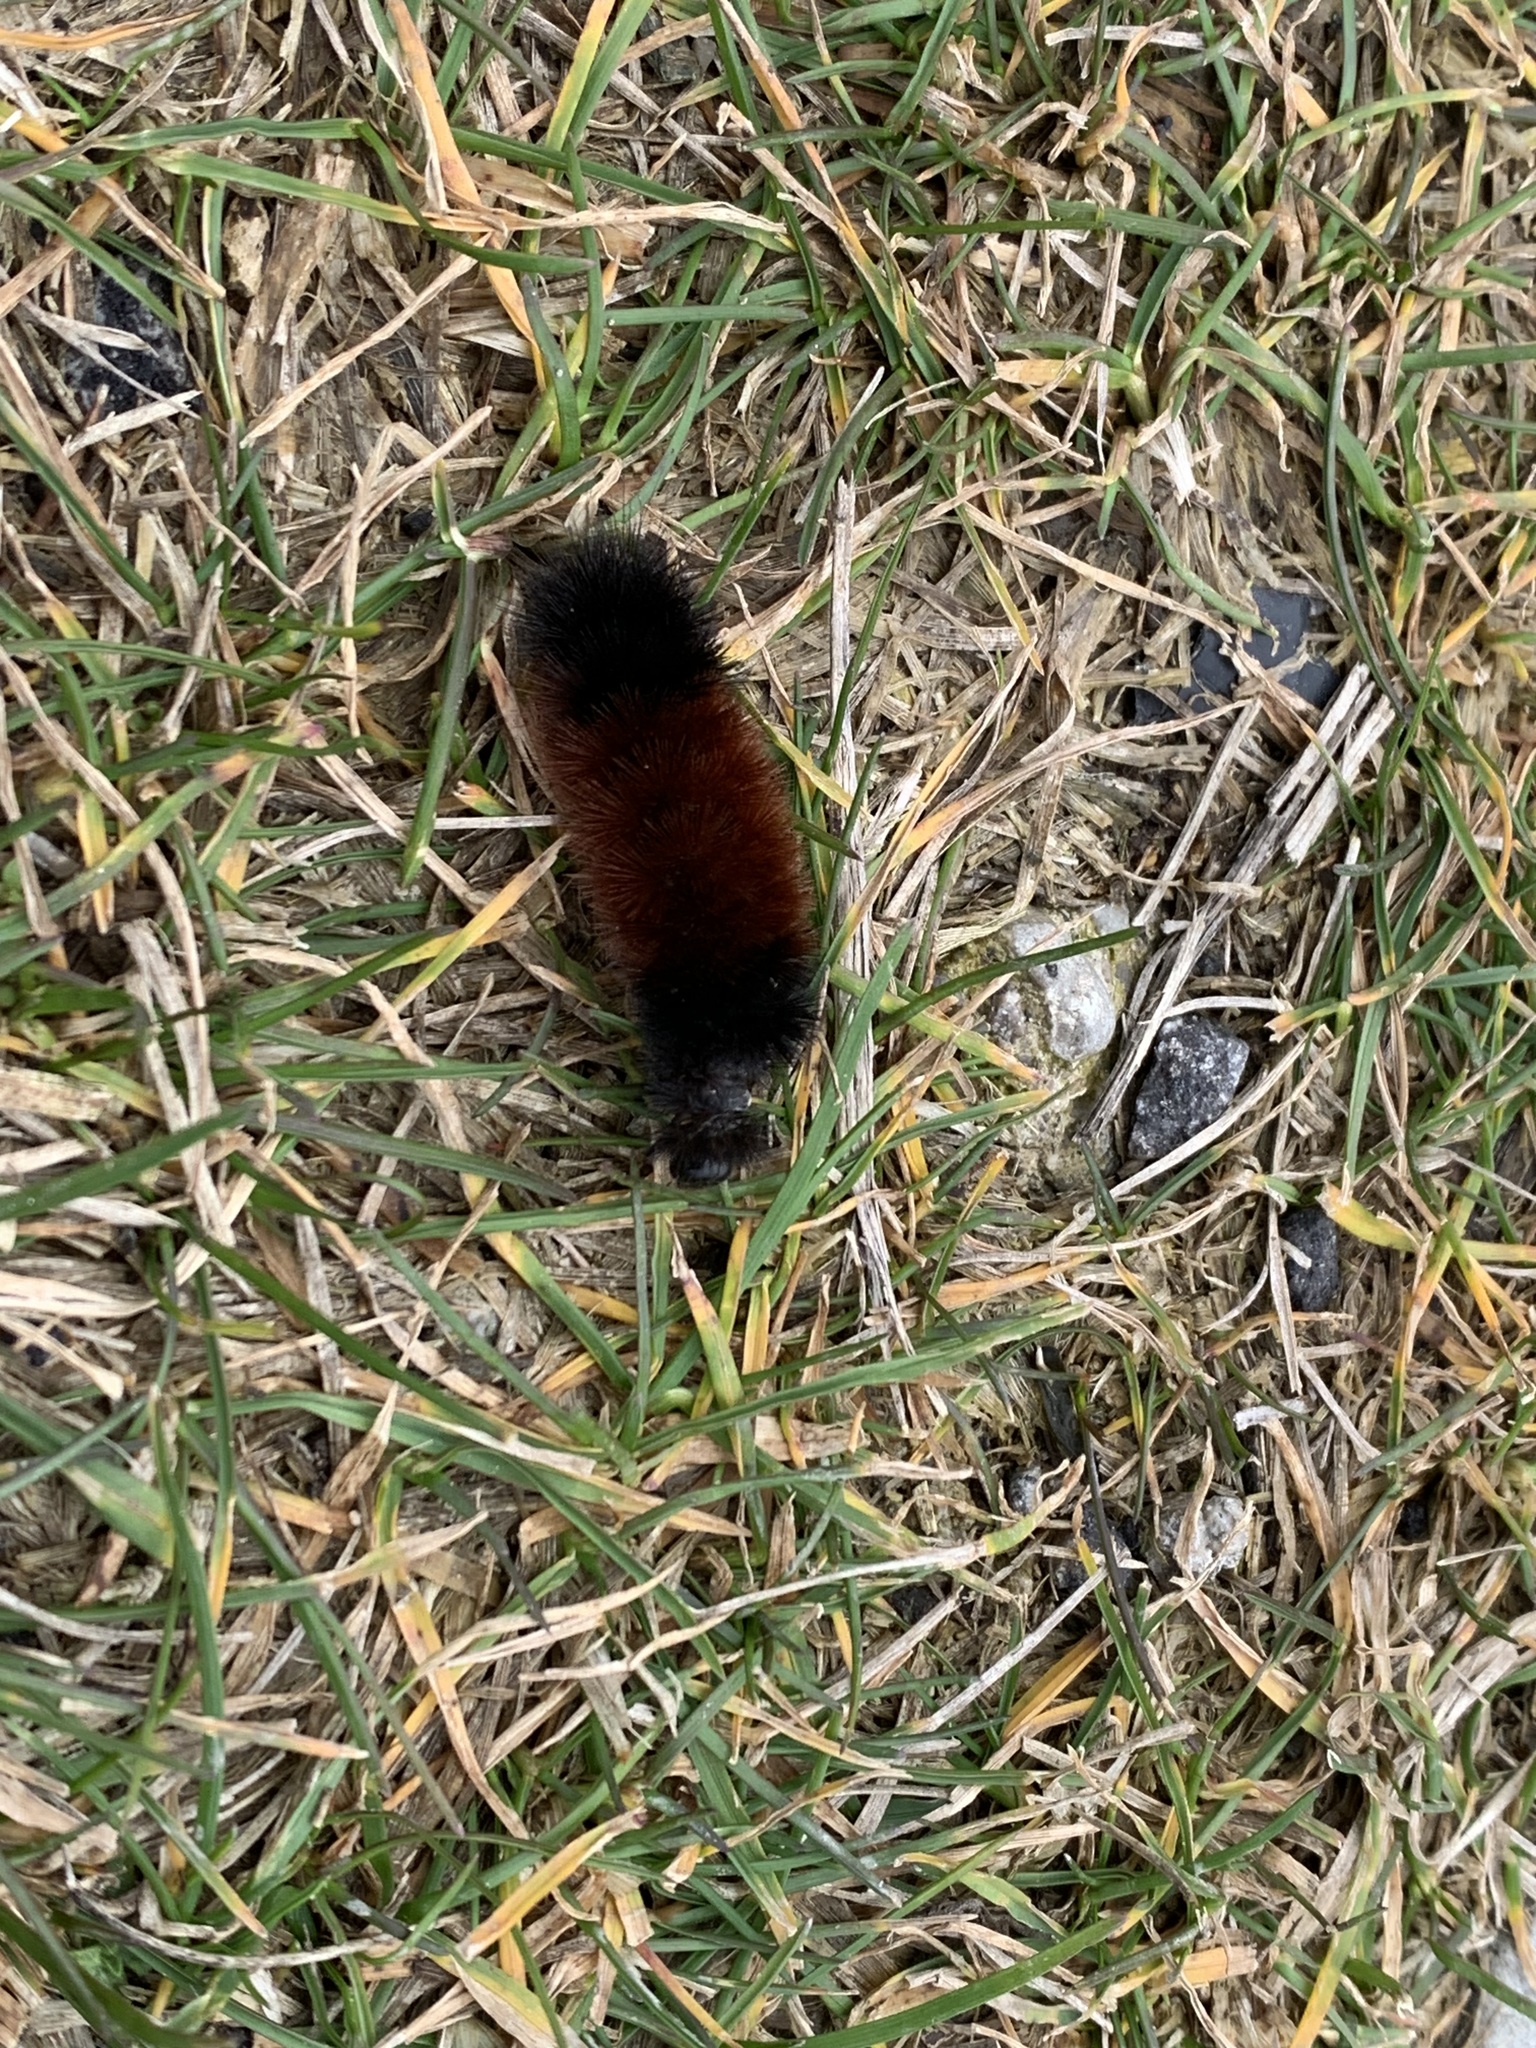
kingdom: Animalia
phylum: Arthropoda
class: Insecta
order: Lepidoptera
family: Erebidae
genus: Pyrrharctia
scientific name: Pyrrharctia isabella
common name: Isabella tiger moth
